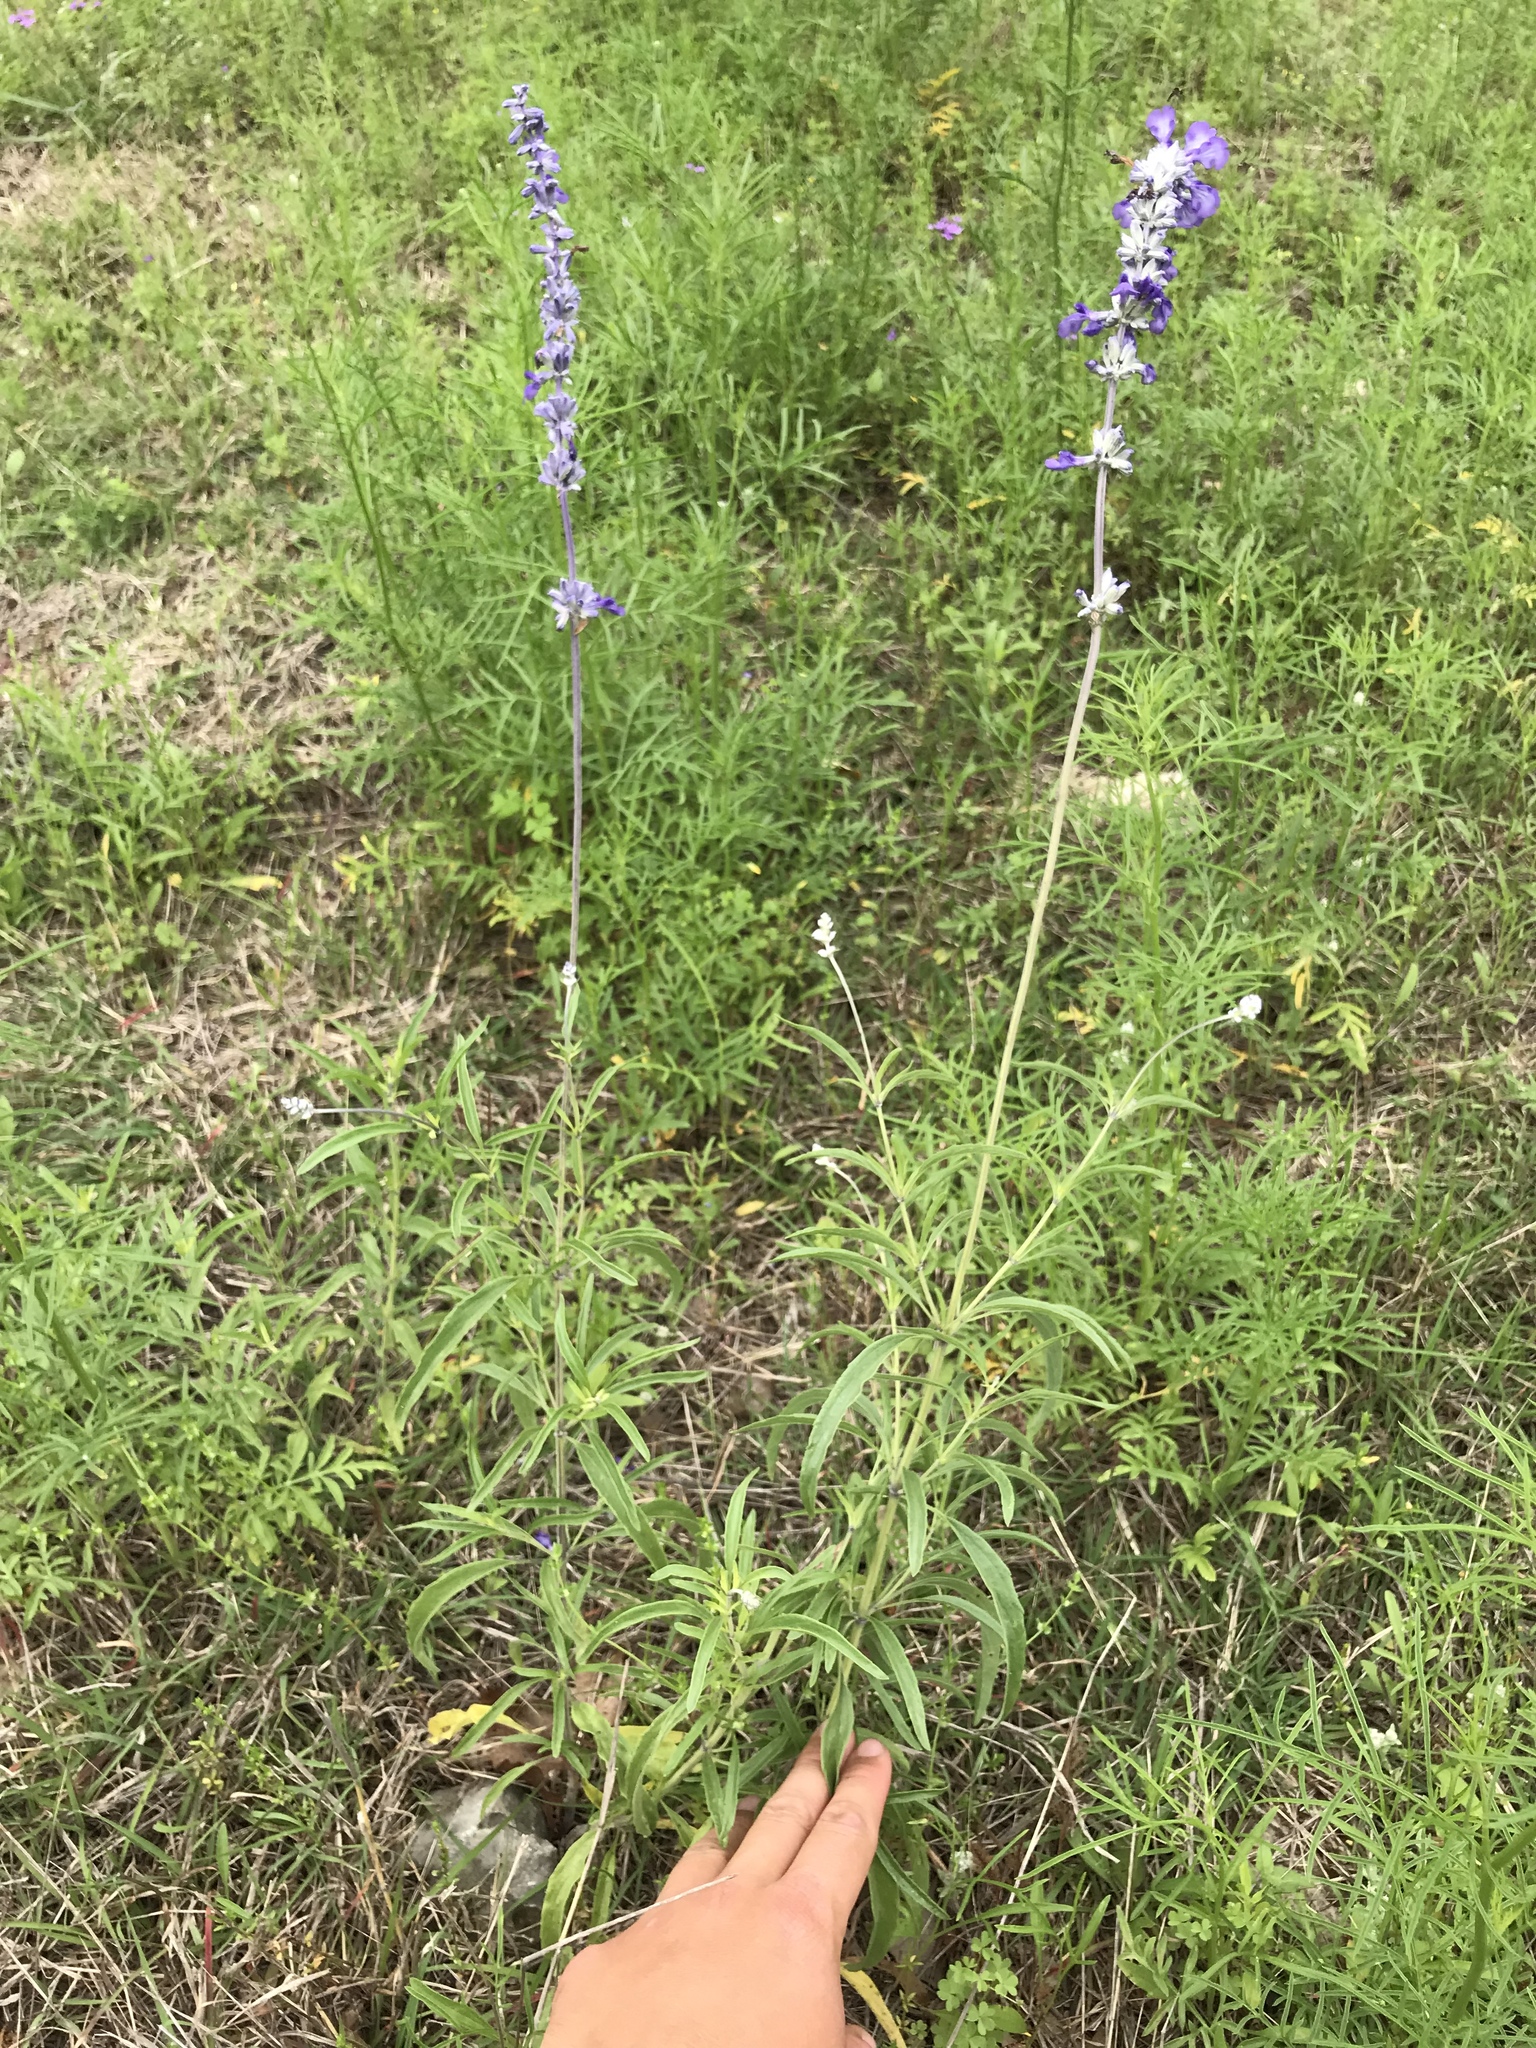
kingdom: Plantae
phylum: Tracheophyta
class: Magnoliopsida
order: Lamiales
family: Lamiaceae
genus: Salvia
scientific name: Salvia farinacea
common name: Mealy sage
